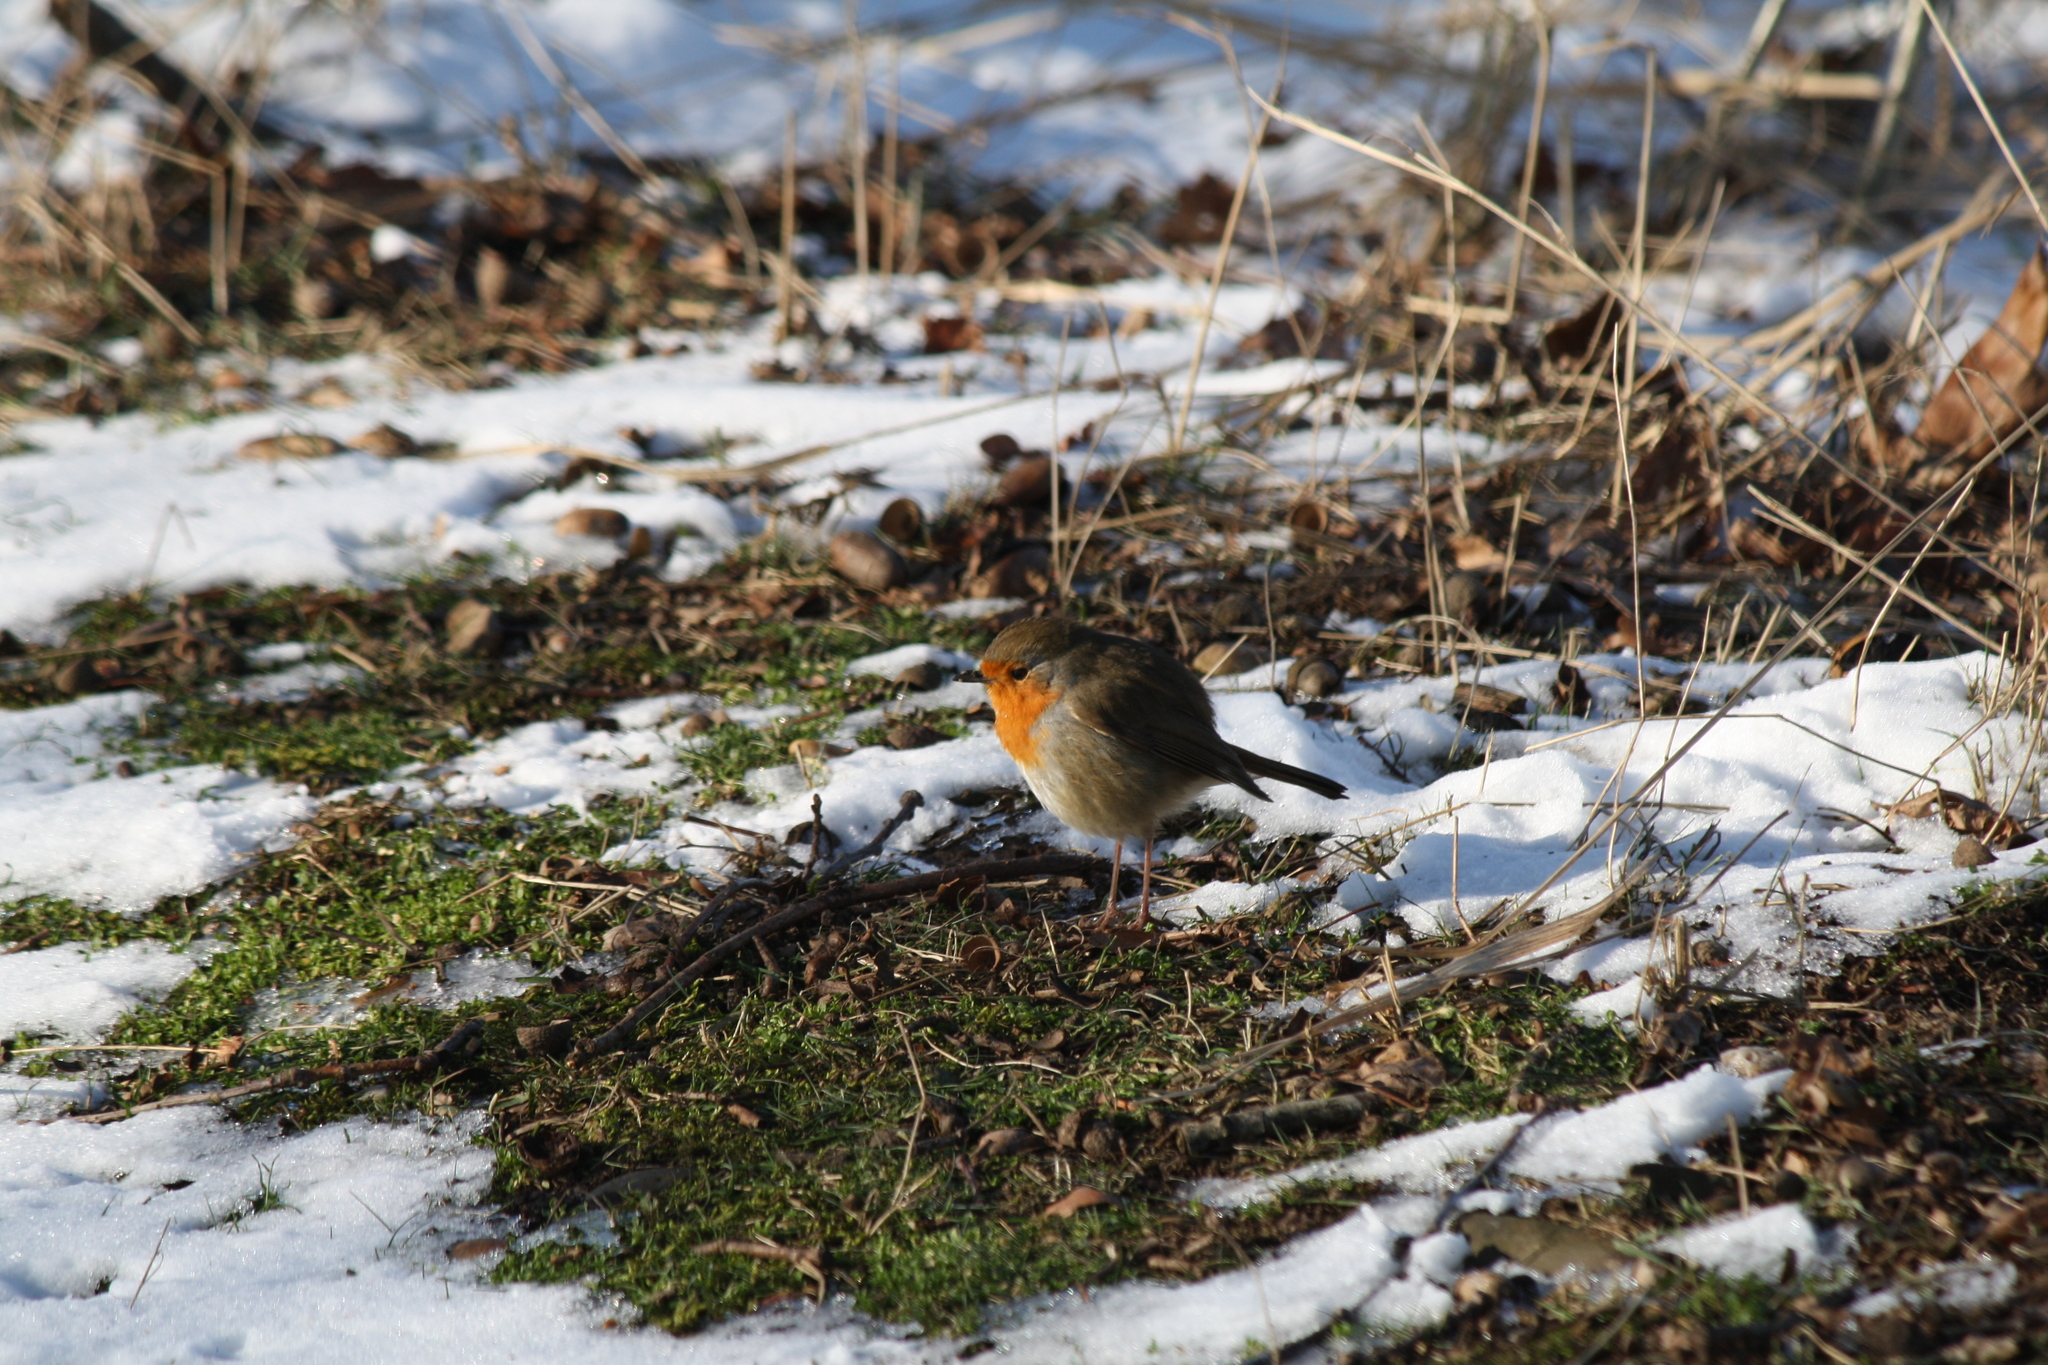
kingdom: Animalia
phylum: Chordata
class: Aves
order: Passeriformes
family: Muscicapidae
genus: Erithacus
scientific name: Erithacus rubecula
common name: European robin
